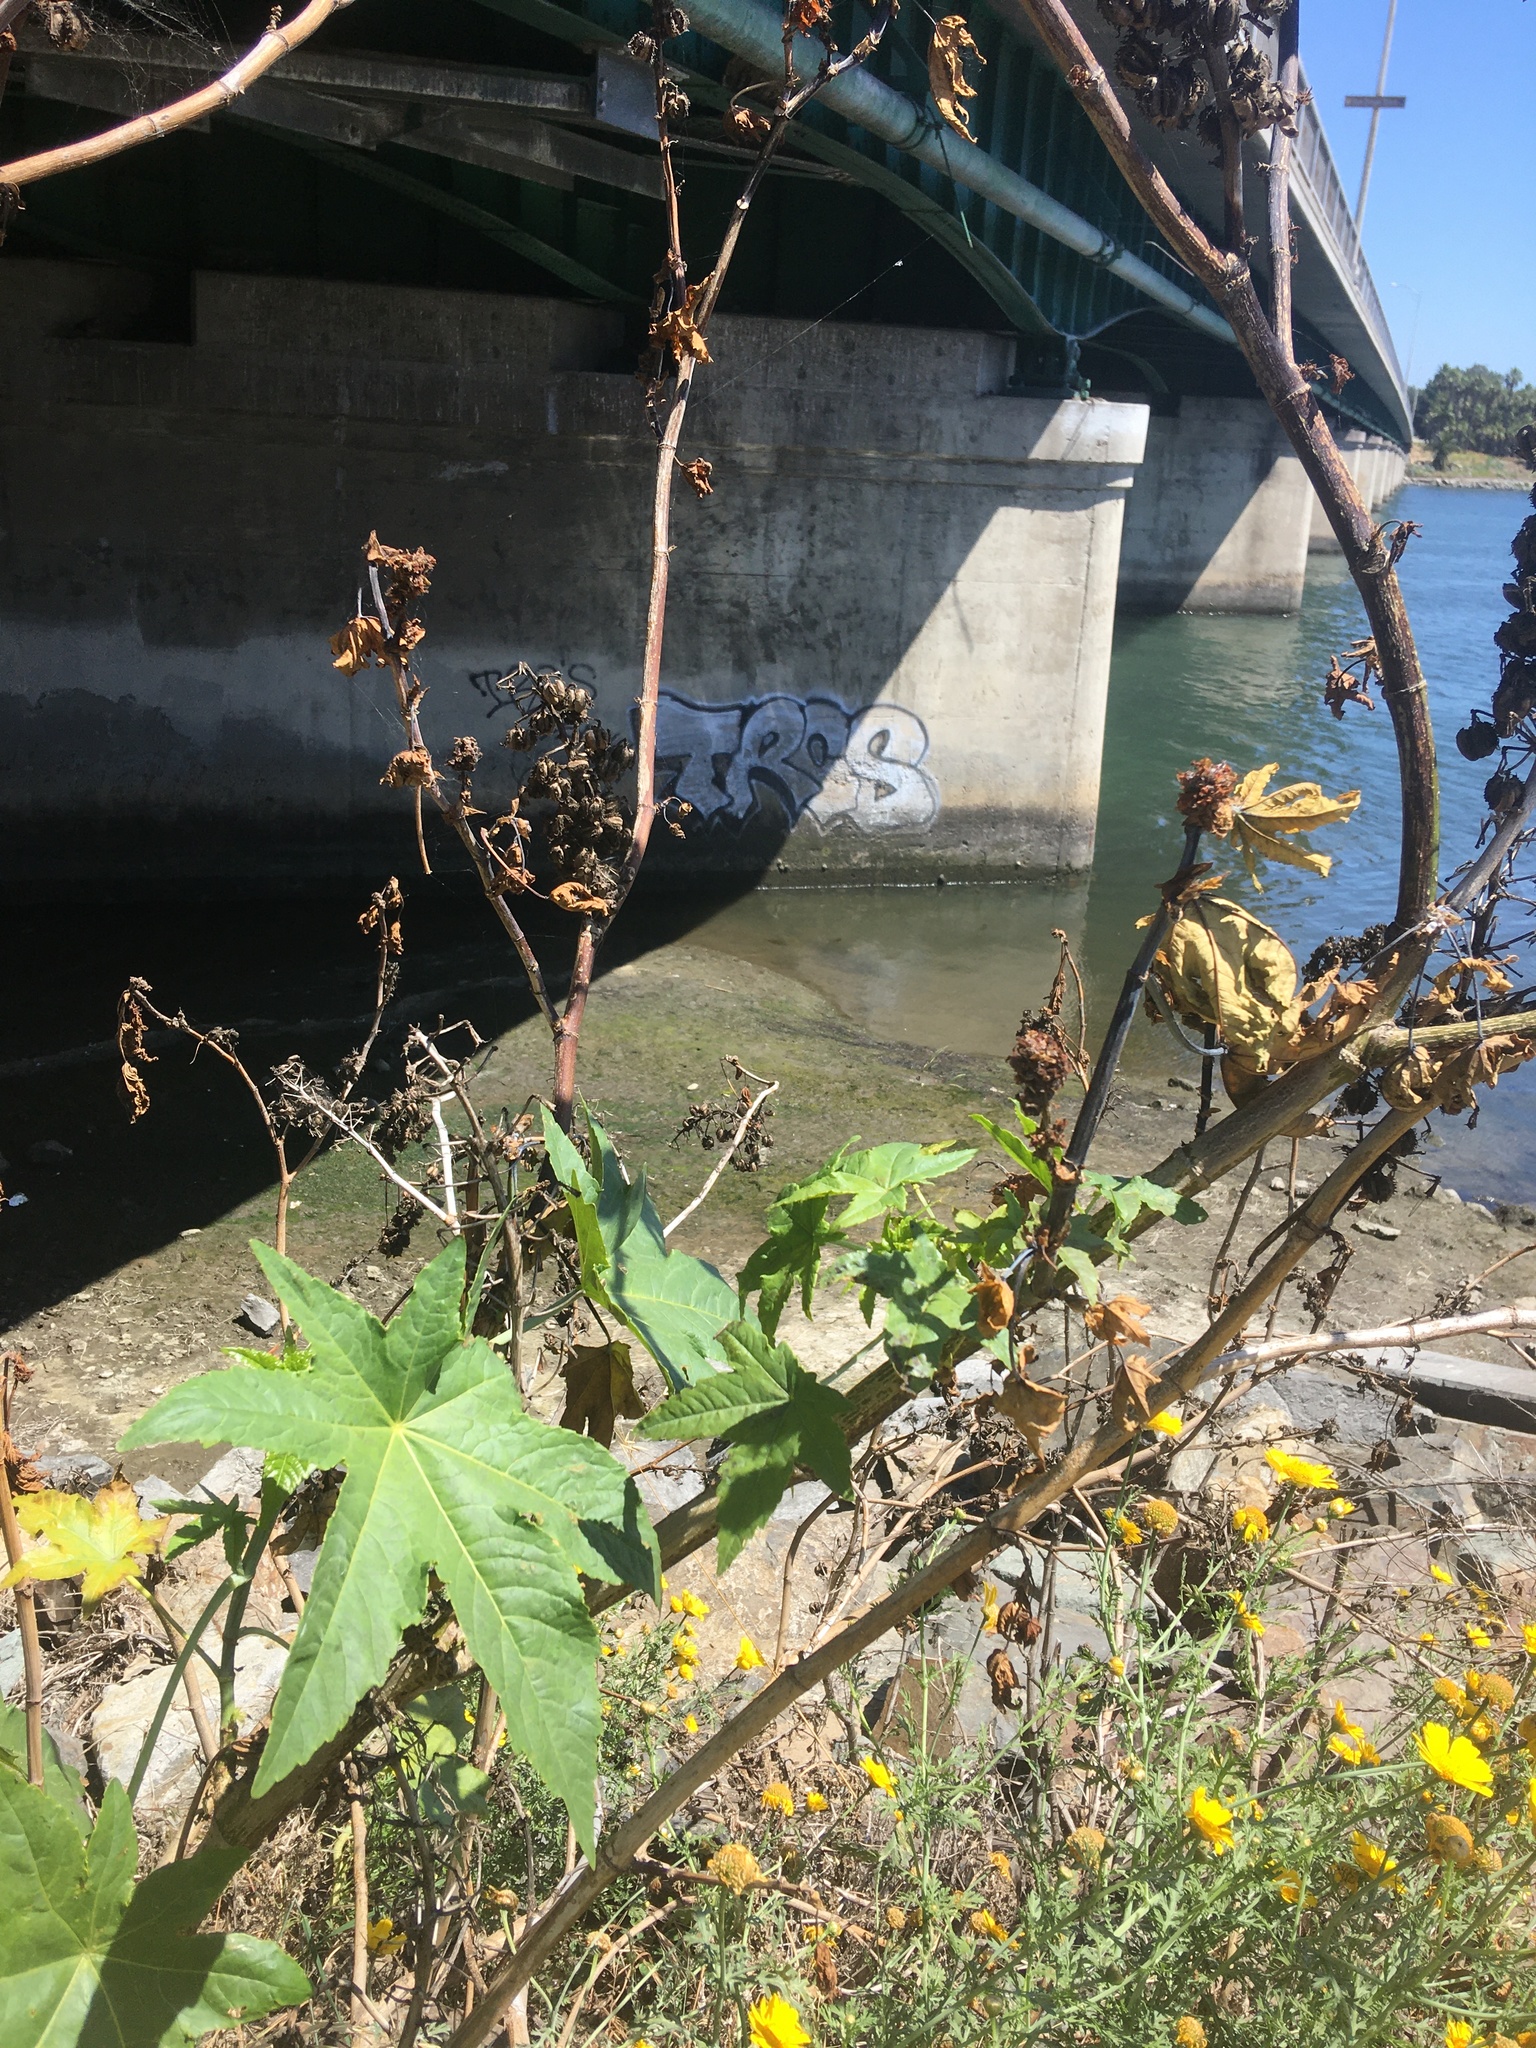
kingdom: Plantae
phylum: Tracheophyta
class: Magnoliopsida
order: Malpighiales
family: Euphorbiaceae
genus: Ricinus
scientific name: Ricinus communis
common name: Castor-oil-plant
